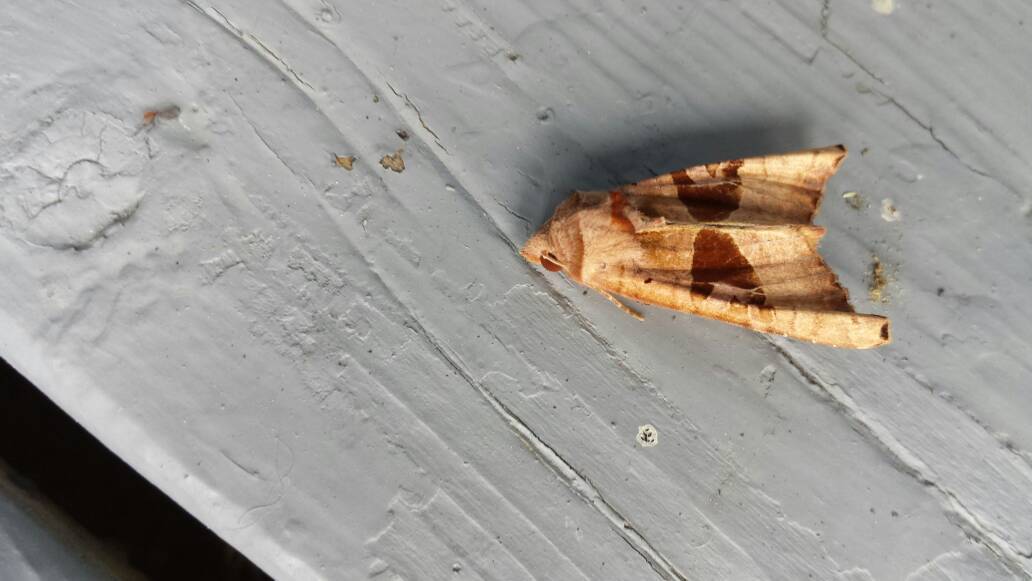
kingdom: Animalia
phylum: Arthropoda
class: Insecta
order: Lepidoptera
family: Noctuidae
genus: Phlogophora
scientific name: Phlogophora periculosa
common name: Brown angle shades
